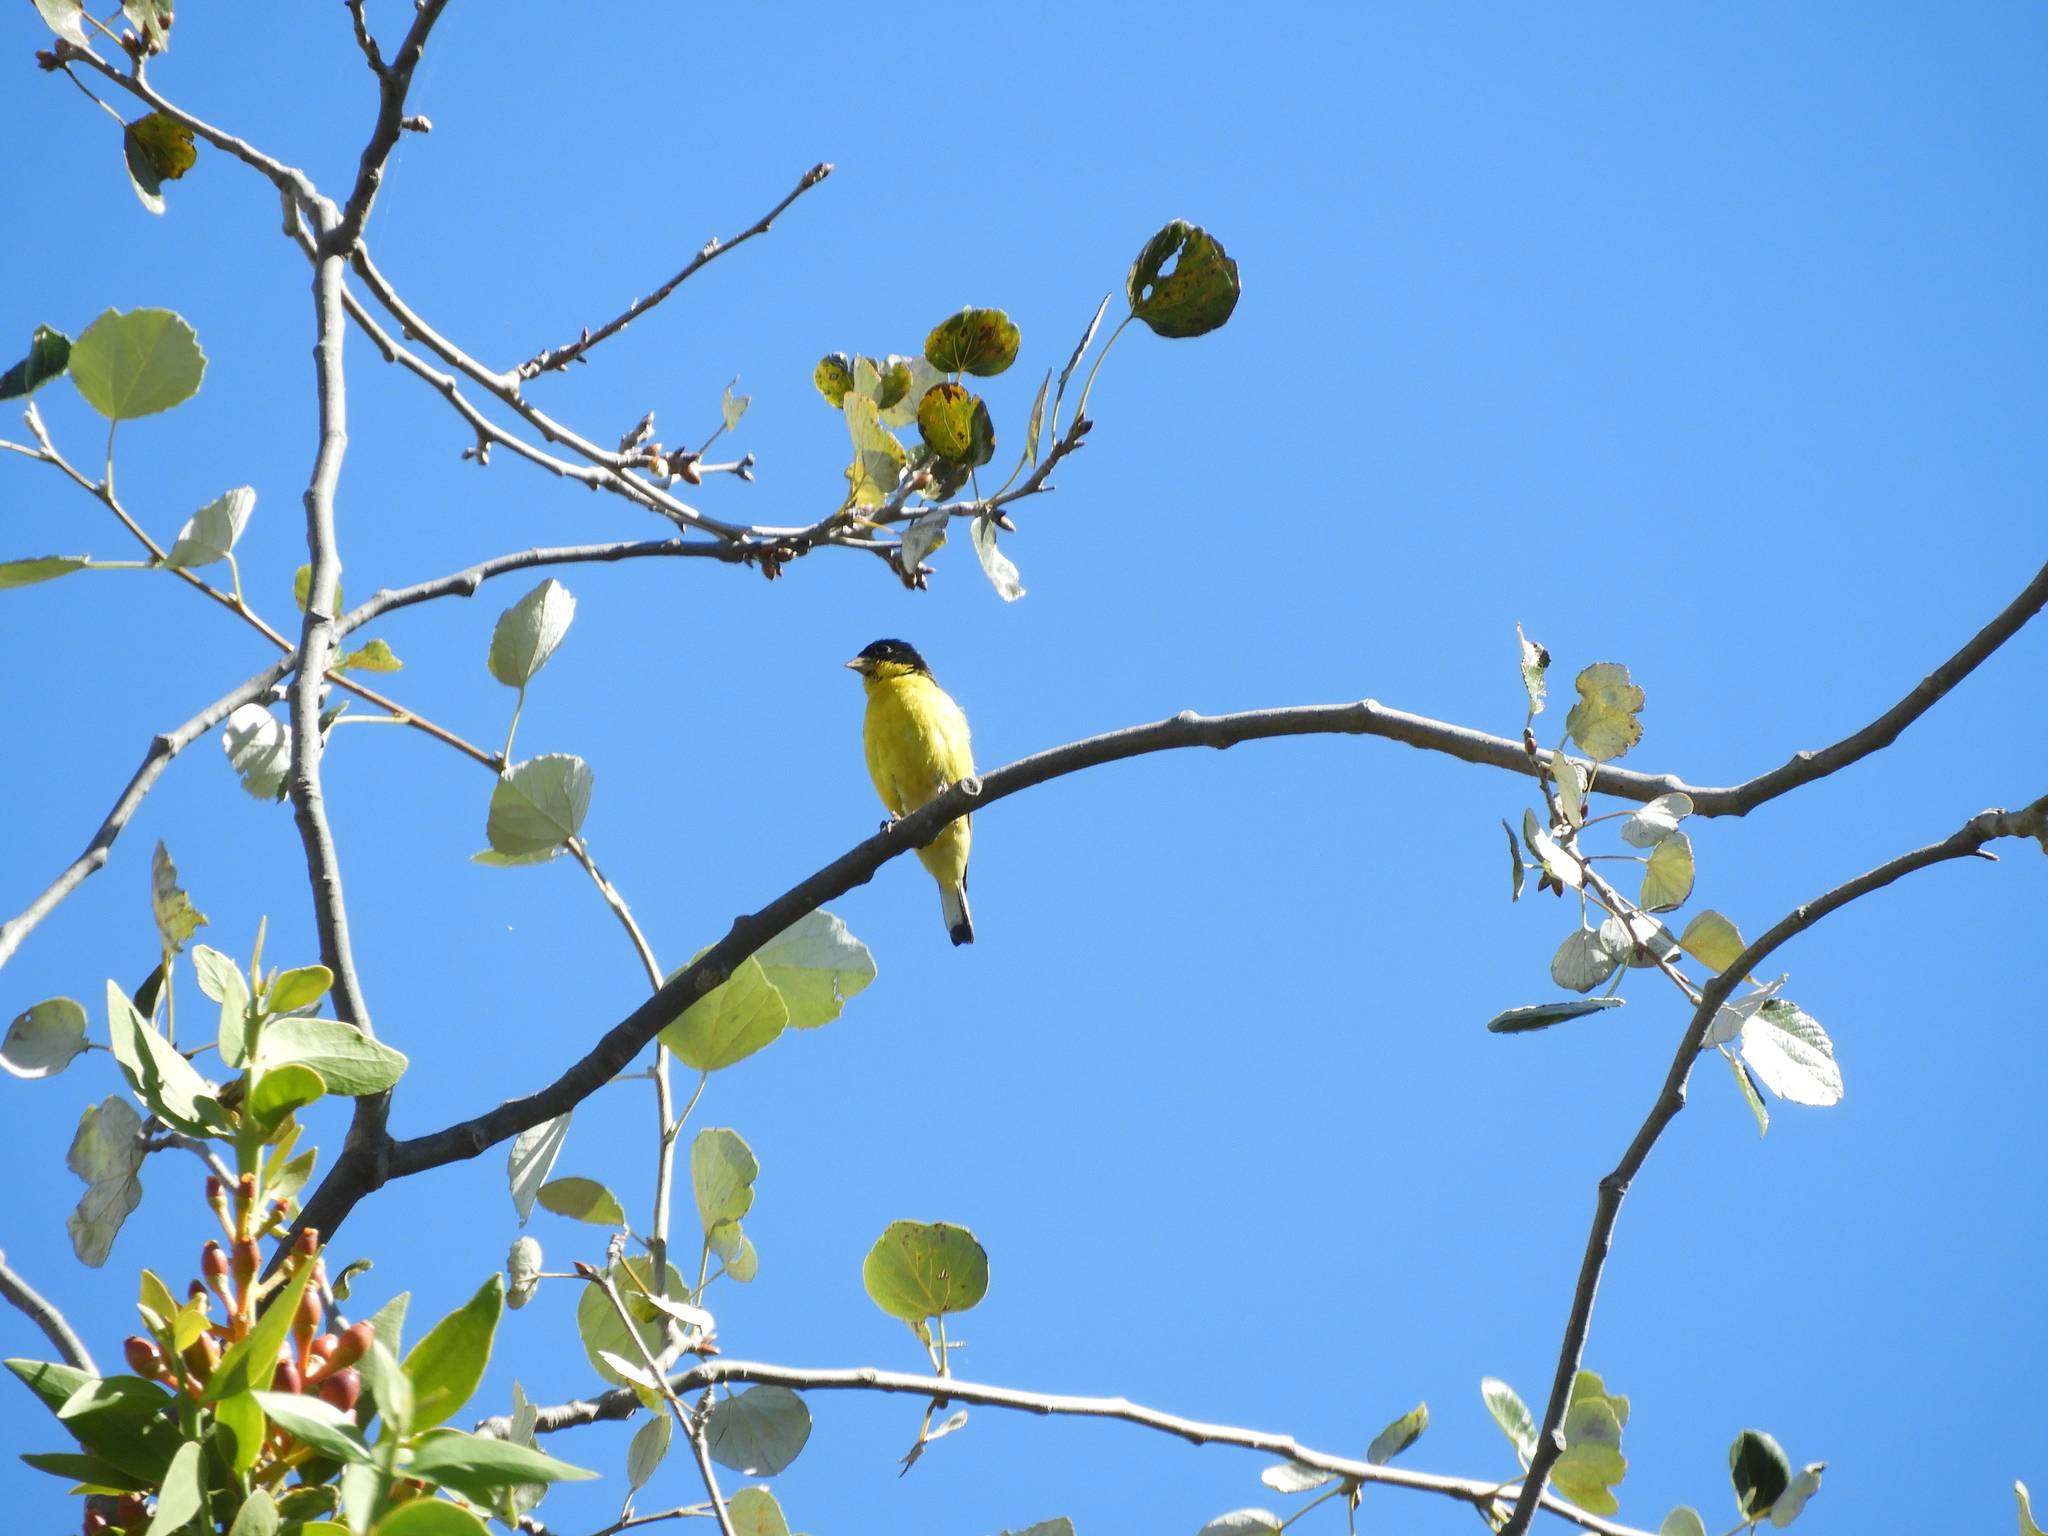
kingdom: Animalia
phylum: Chordata
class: Aves
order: Passeriformes
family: Fringillidae
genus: Spinus
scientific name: Spinus psaltria
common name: Lesser goldfinch
